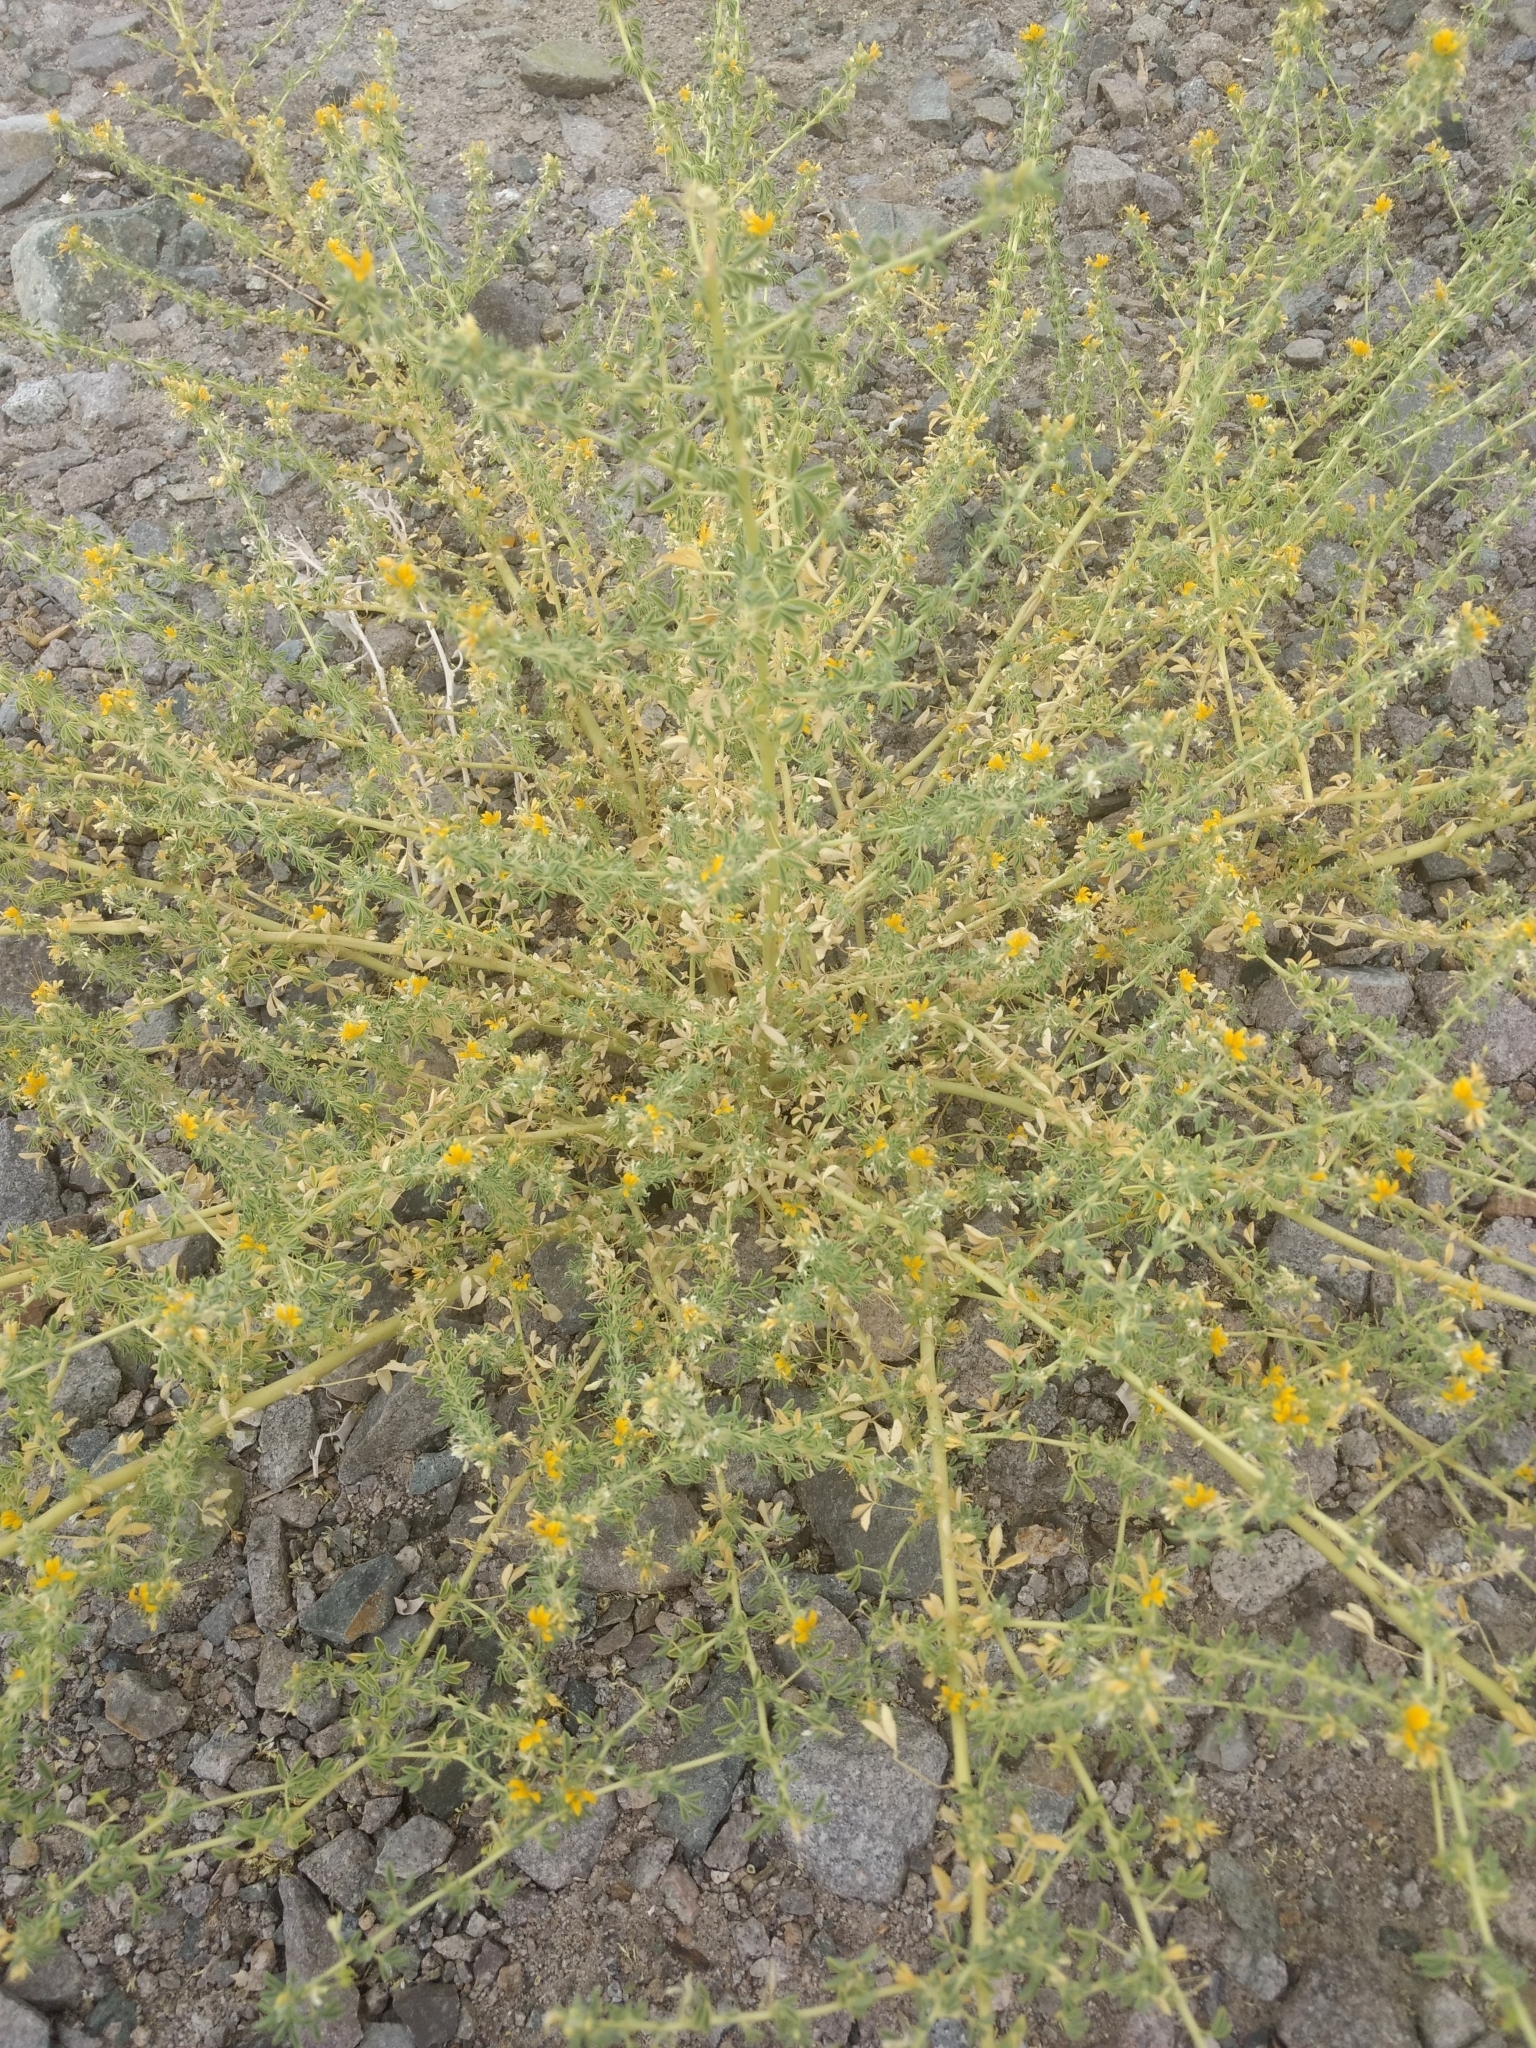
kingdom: Plantae
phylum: Tracheophyta
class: Magnoliopsida
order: Brassicales
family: Cleomaceae
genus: Cleomella
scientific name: Cleomella obtusifolia
